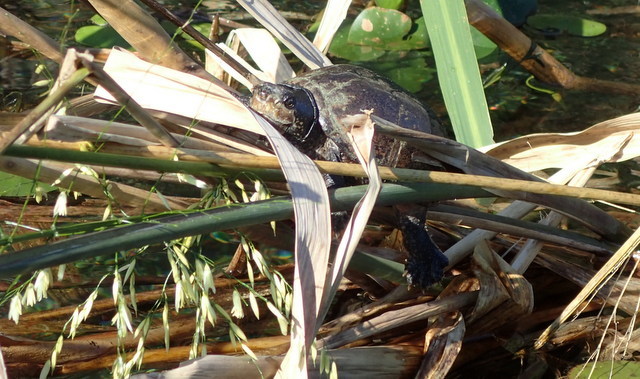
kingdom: Animalia
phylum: Chordata
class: Testudines
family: Kinosternidae
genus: Sternotherus
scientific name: Sternotherus odoratus
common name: Common musk turtle
